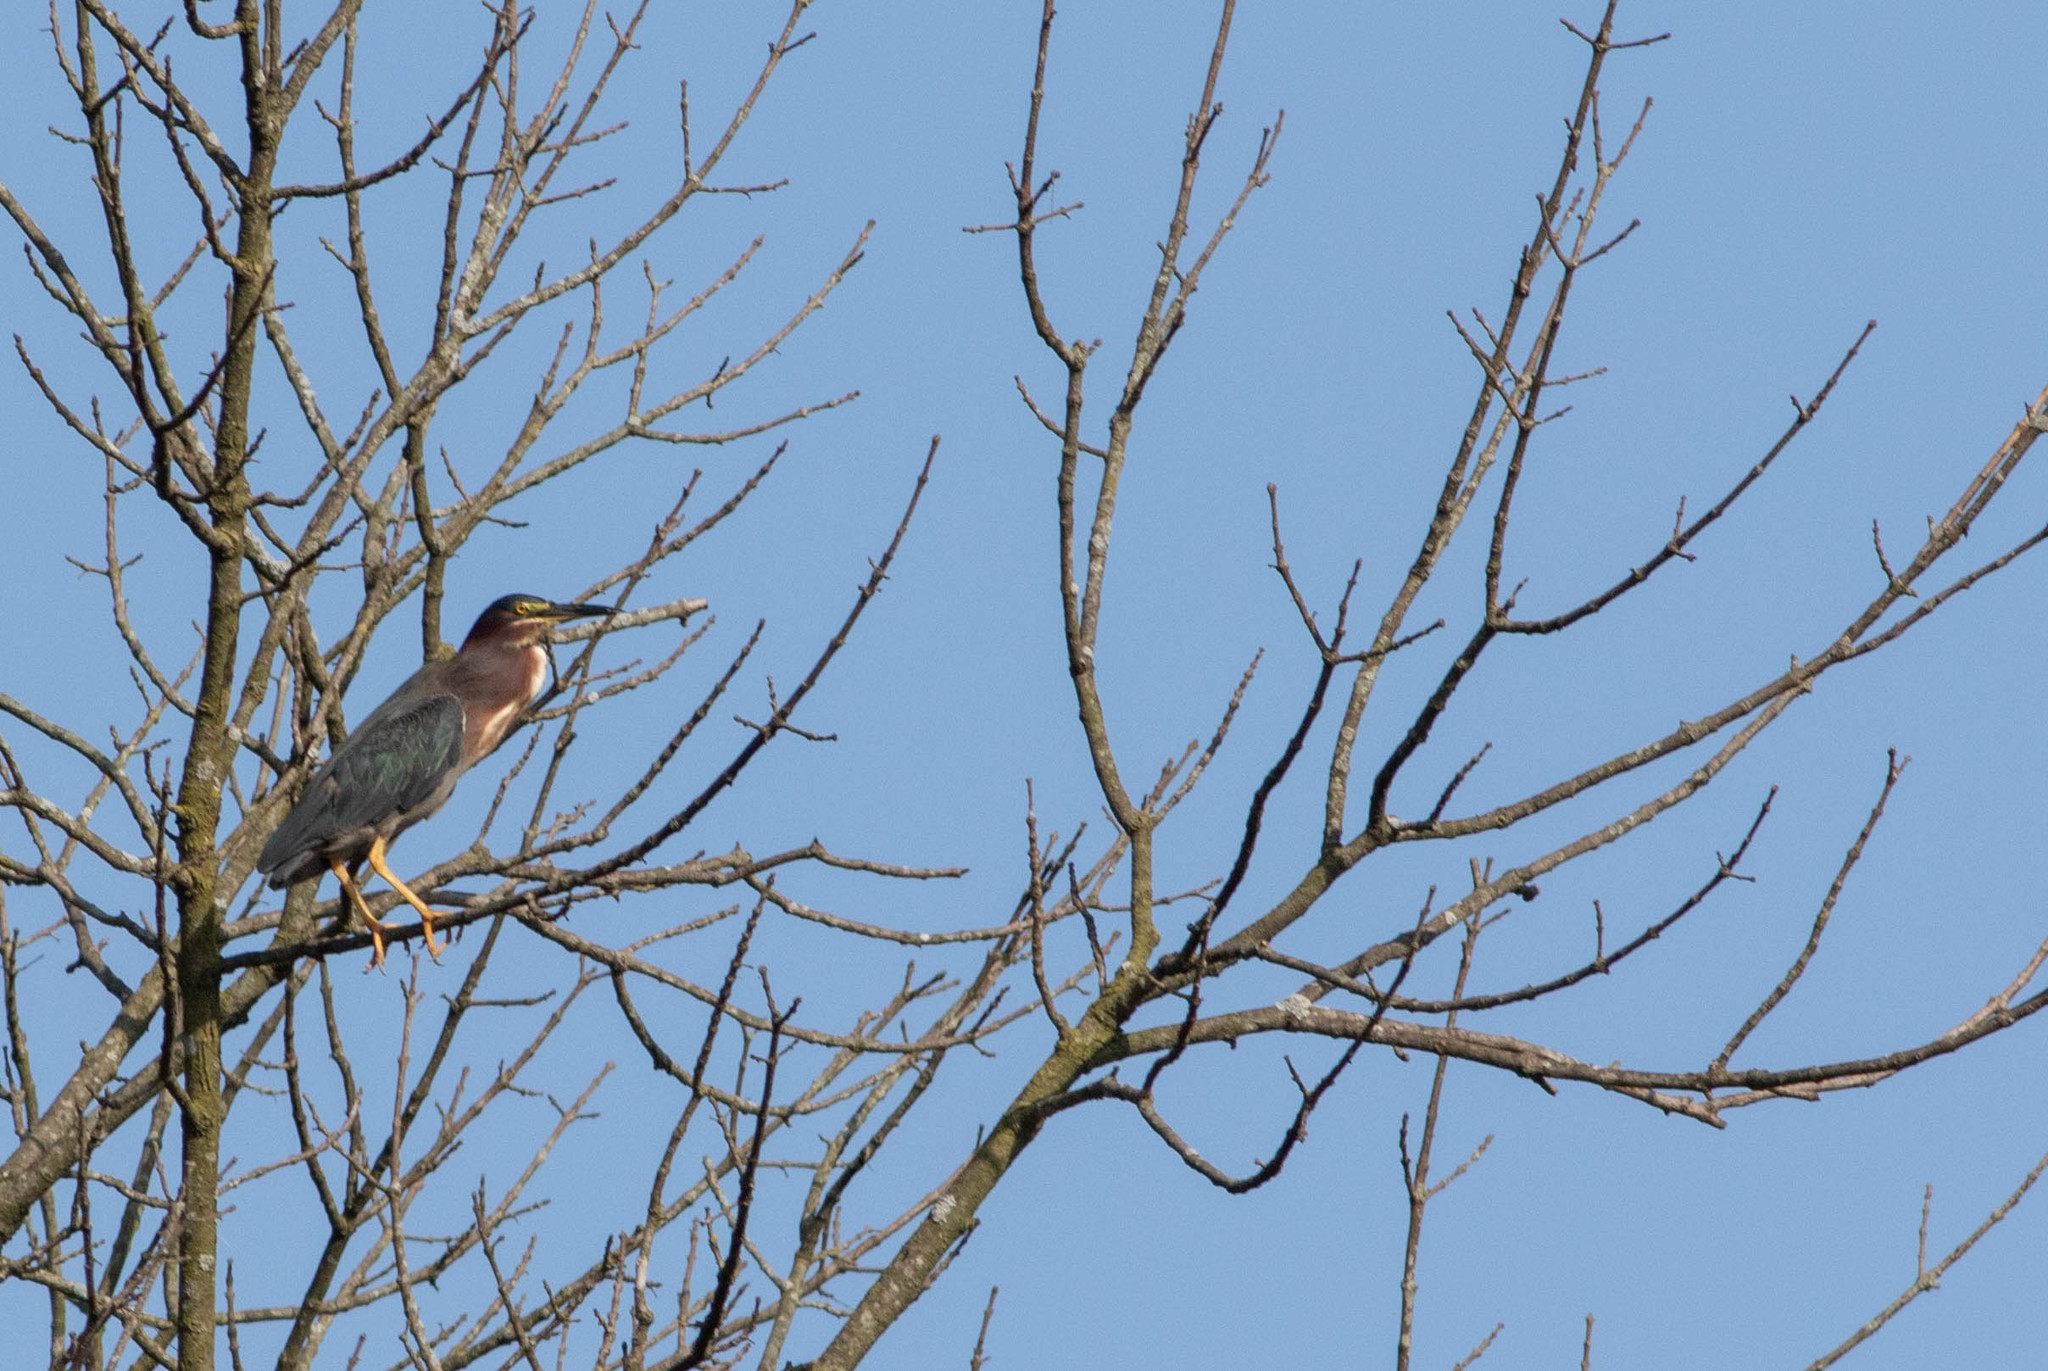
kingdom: Animalia
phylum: Chordata
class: Aves
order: Pelecaniformes
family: Ardeidae
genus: Butorides
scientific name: Butorides virescens
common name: Green heron
